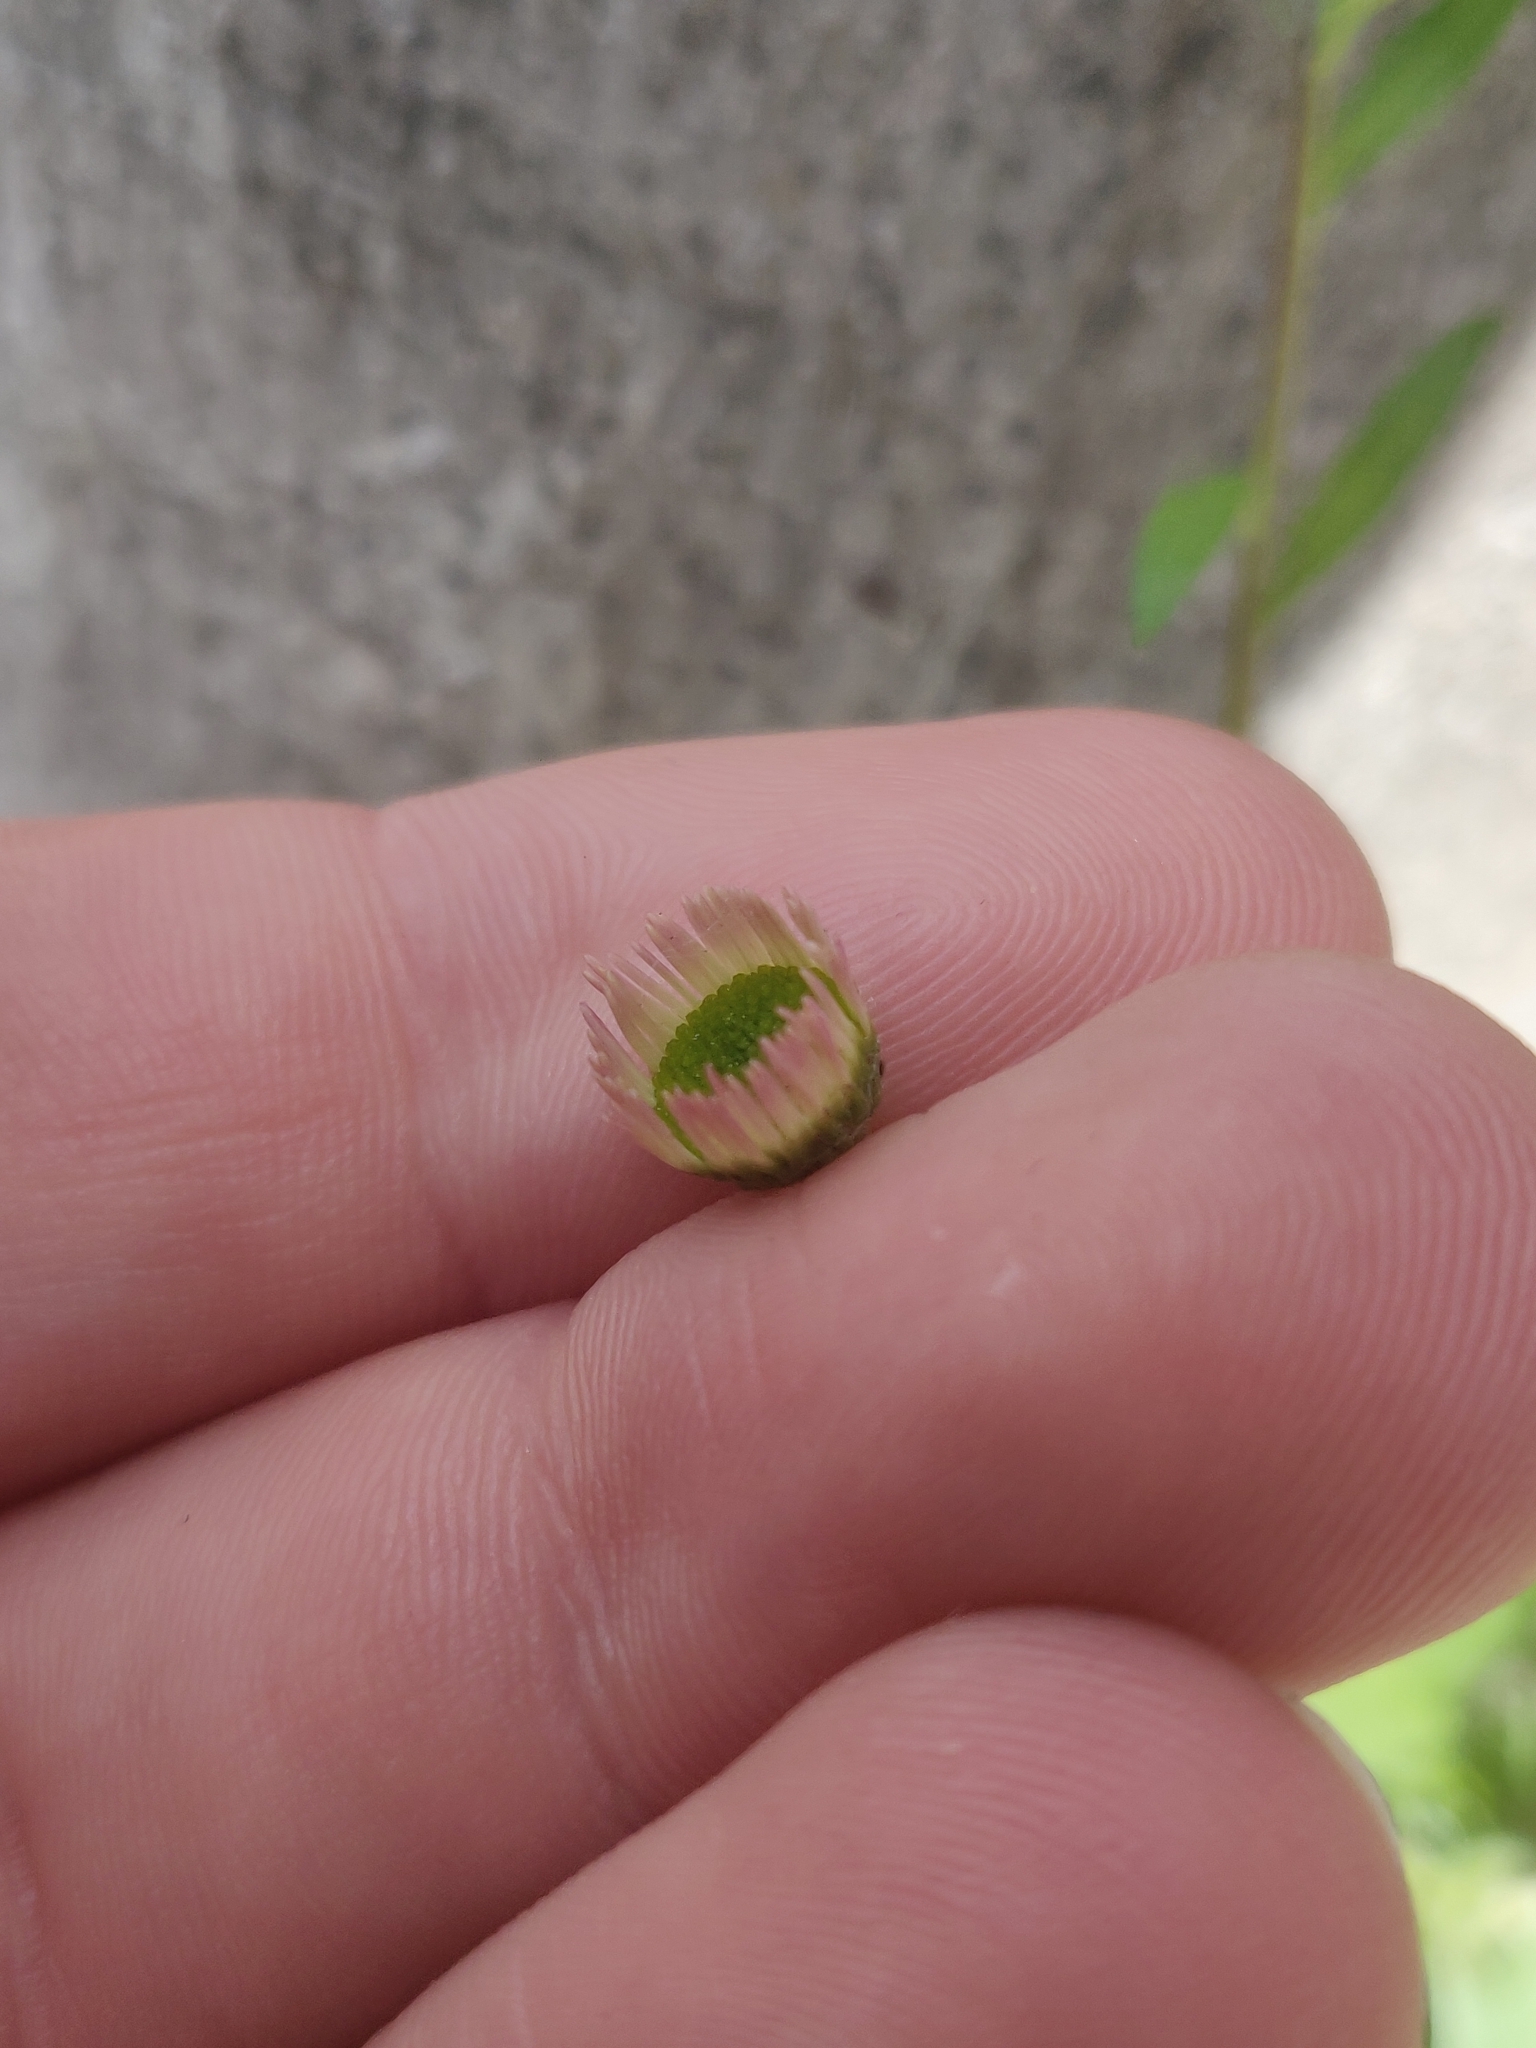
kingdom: Plantae
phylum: Tracheophyta
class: Magnoliopsida
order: Asterales
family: Asteraceae
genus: Erigeron
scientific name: Erigeron karvinskianus
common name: Mexican fleabane
